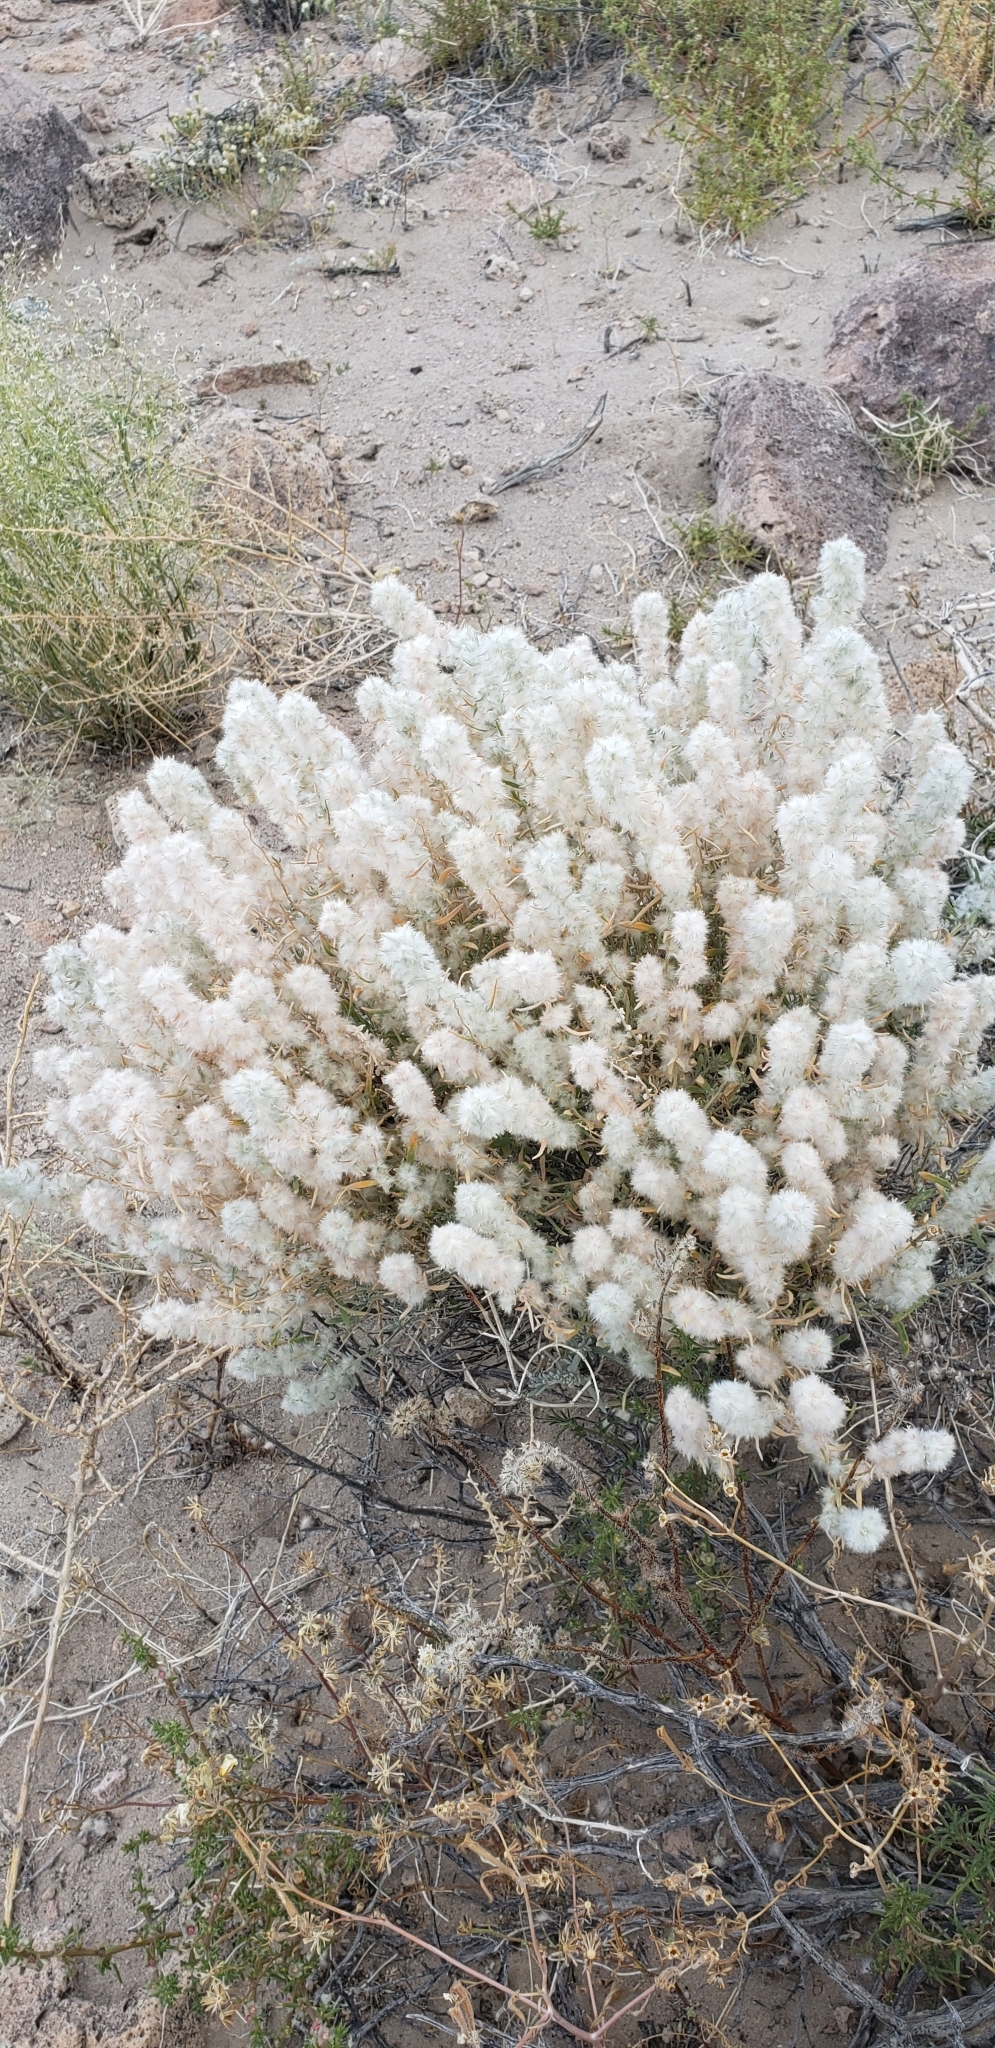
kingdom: Plantae
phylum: Tracheophyta
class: Magnoliopsida
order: Caryophyllales
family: Amaranthaceae
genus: Krascheninnikovia
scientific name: Krascheninnikovia lanata
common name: Winterfat
